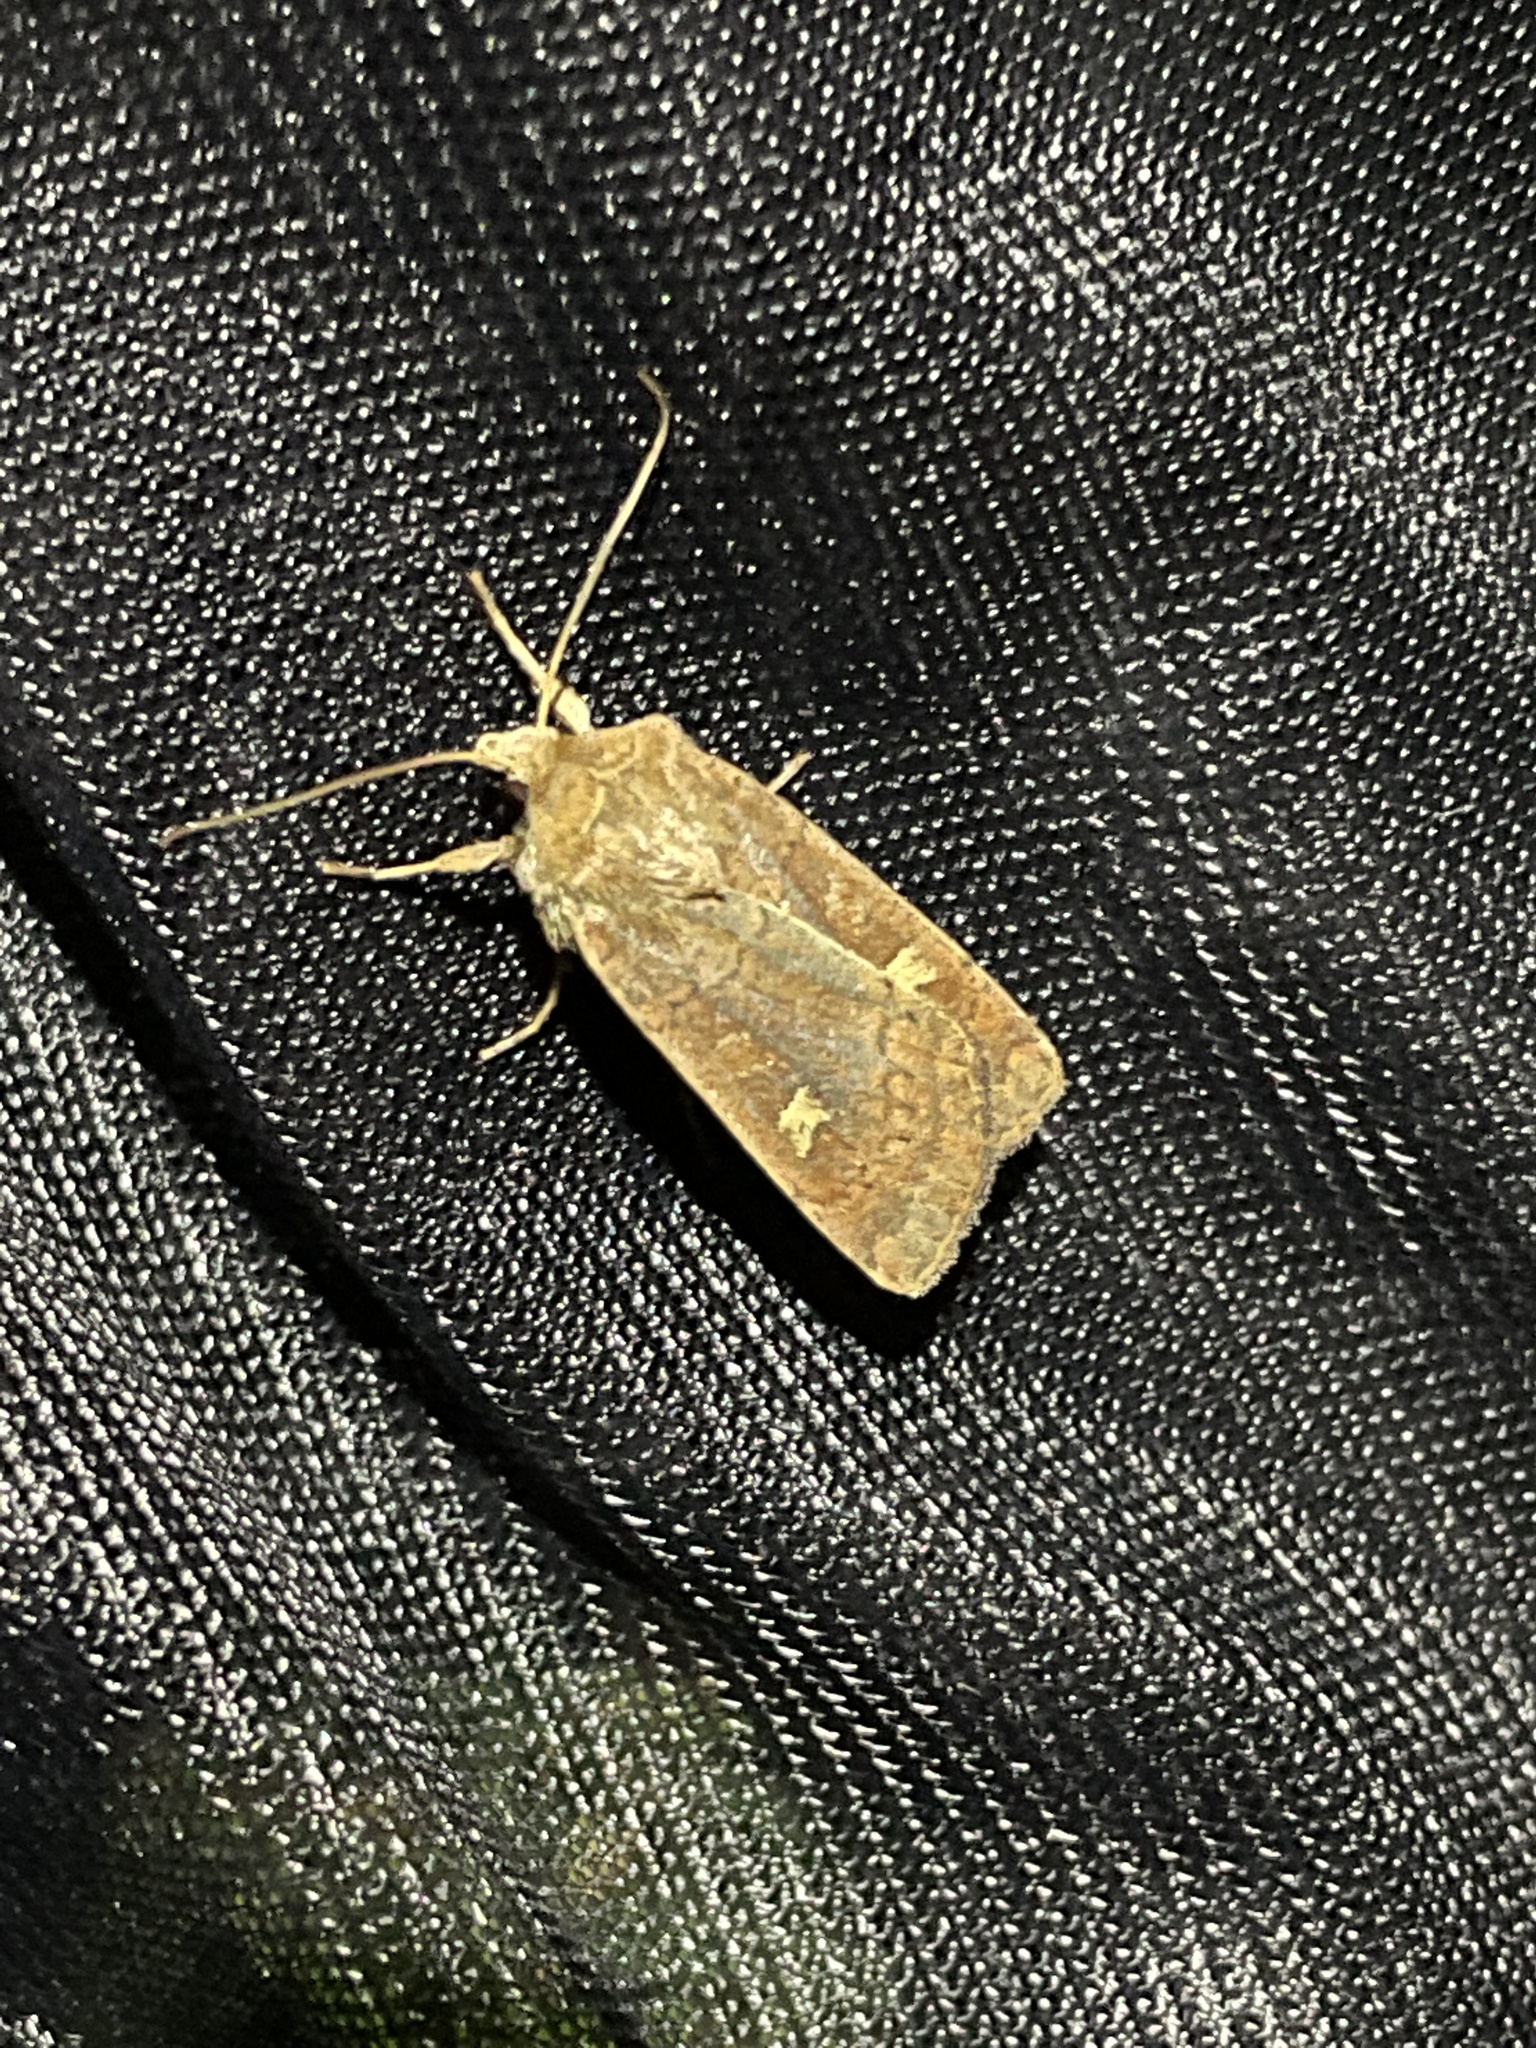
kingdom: Animalia
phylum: Arthropoda
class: Insecta
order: Lepidoptera
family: Noctuidae
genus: Xestia
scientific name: Xestia xanthographa
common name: Square-spot rustic
